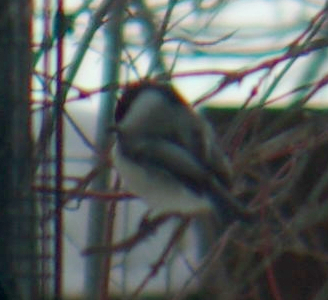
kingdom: Animalia
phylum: Chordata
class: Aves
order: Passeriformes
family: Paridae
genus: Poecile
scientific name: Poecile atricapillus
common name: Black-capped chickadee
